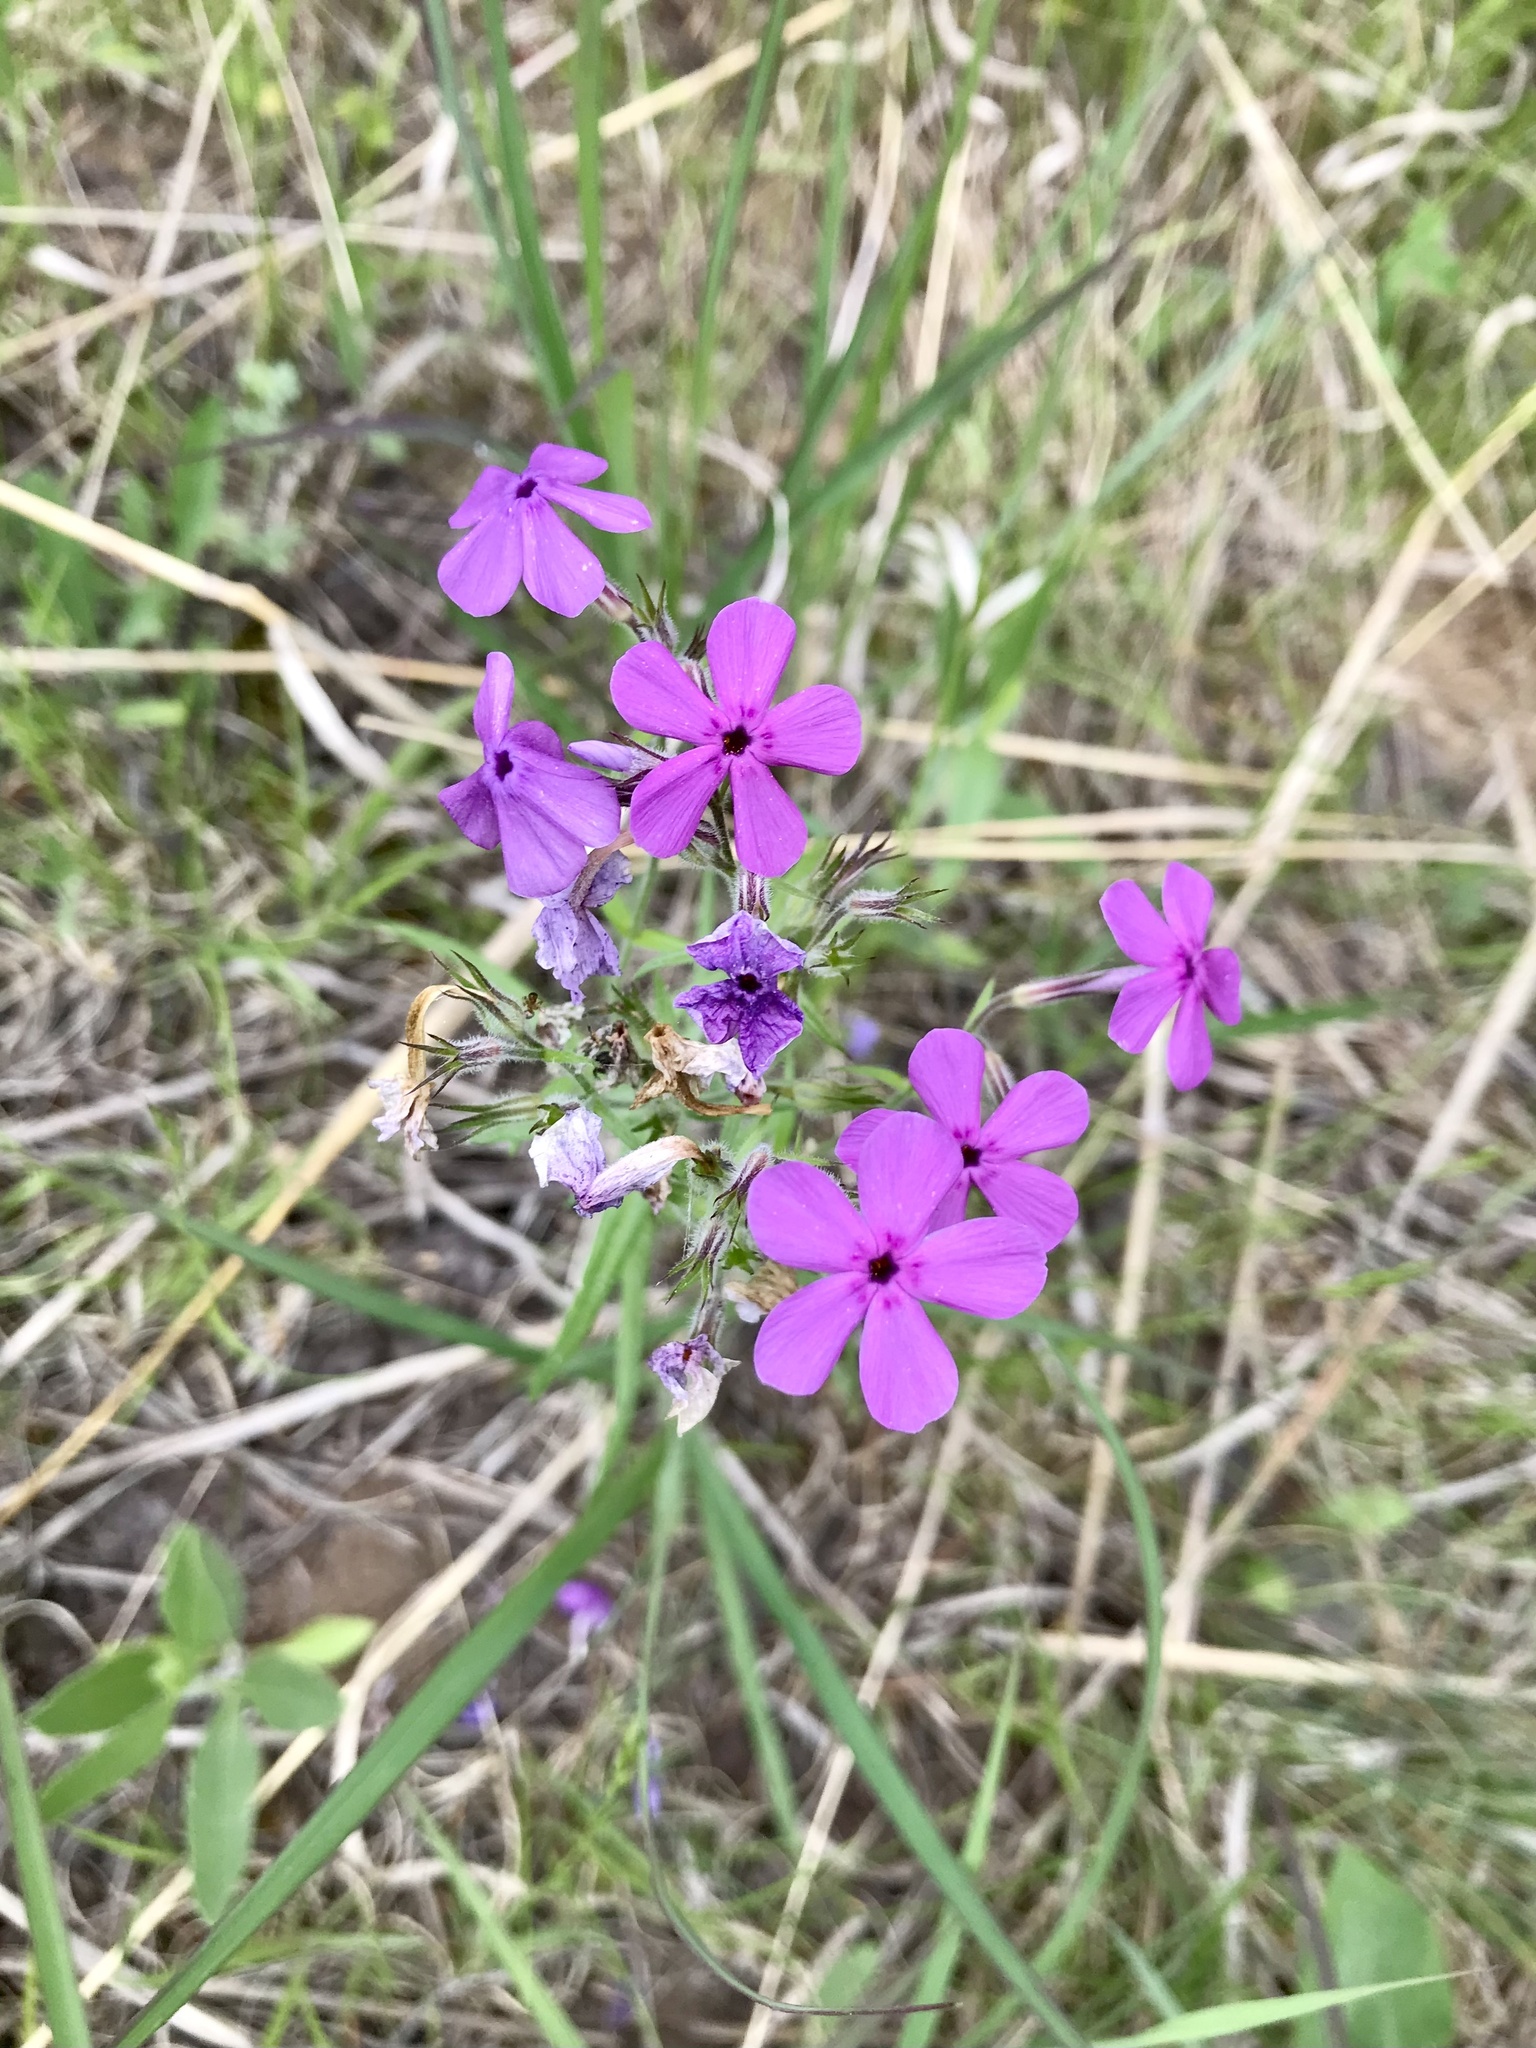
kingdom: Plantae
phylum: Tracheophyta
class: Magnoliopsida
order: Ericales
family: Polemoniaceae
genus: Phlox
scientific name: Phlox pilosa
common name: Prairie phlox
